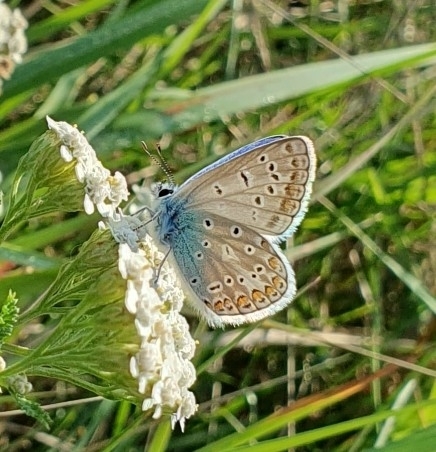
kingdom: Animalia
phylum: Arthropoda
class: Insecta
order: Lepidoptera
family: Lycaenidae
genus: Polyommatus
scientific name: Polyommatus icarus
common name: Common blue
